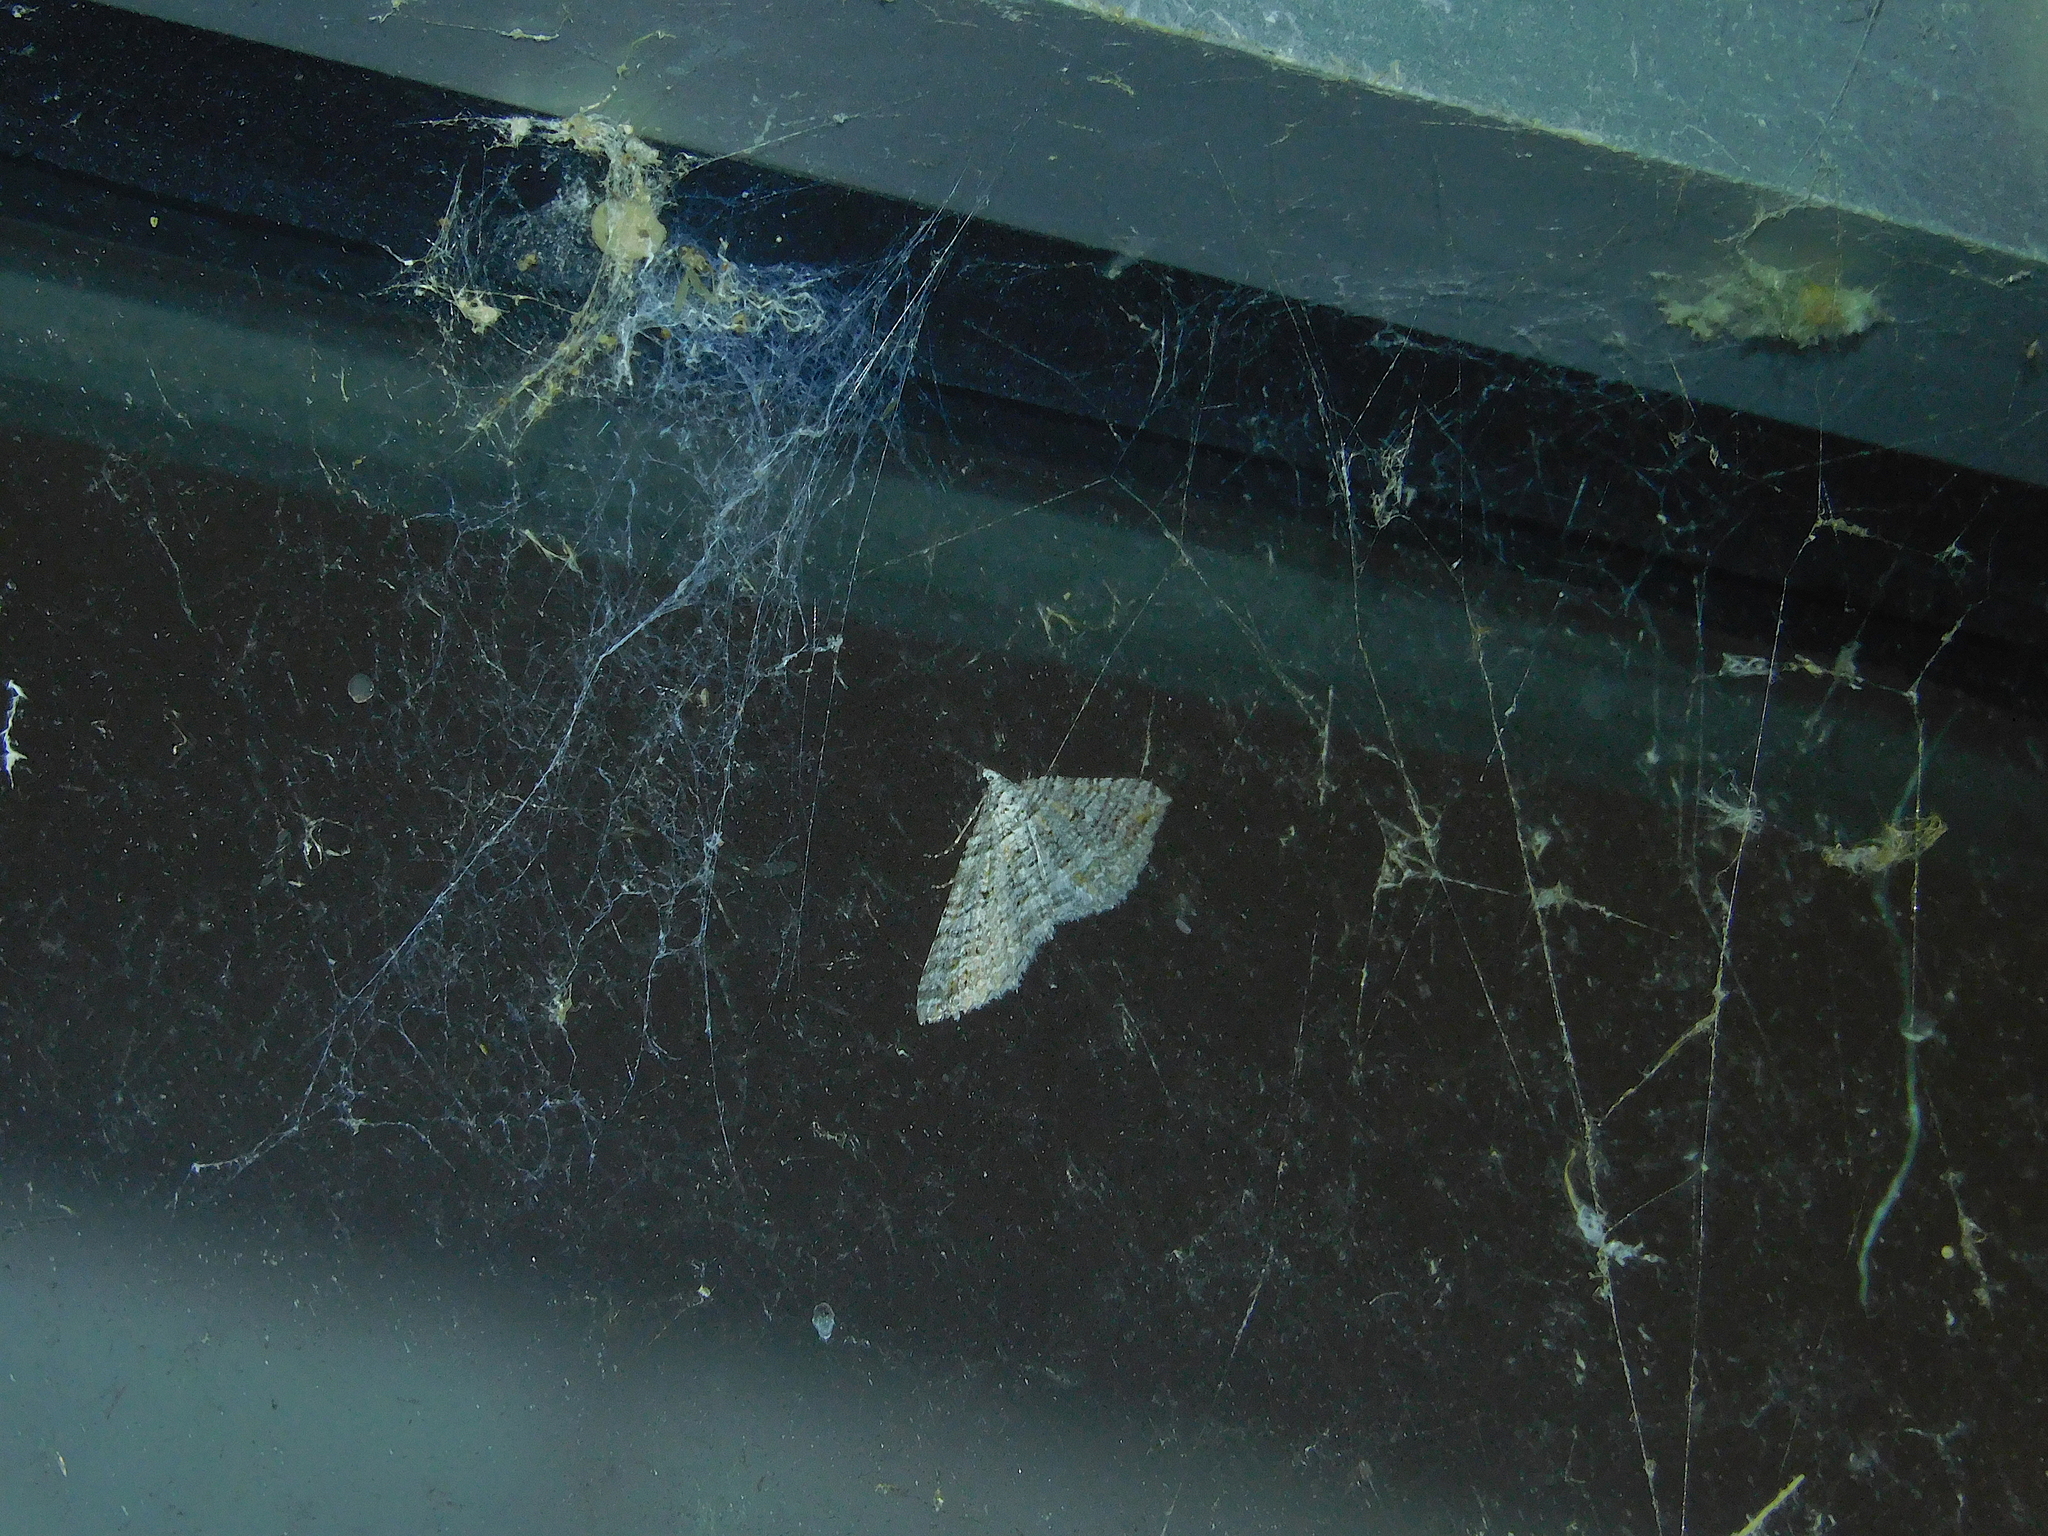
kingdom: Animalia
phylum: Arthropoda
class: Insecta
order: Lepidoptera
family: Geometridae
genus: Chrysolarentia
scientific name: Chrysolarentia severata
